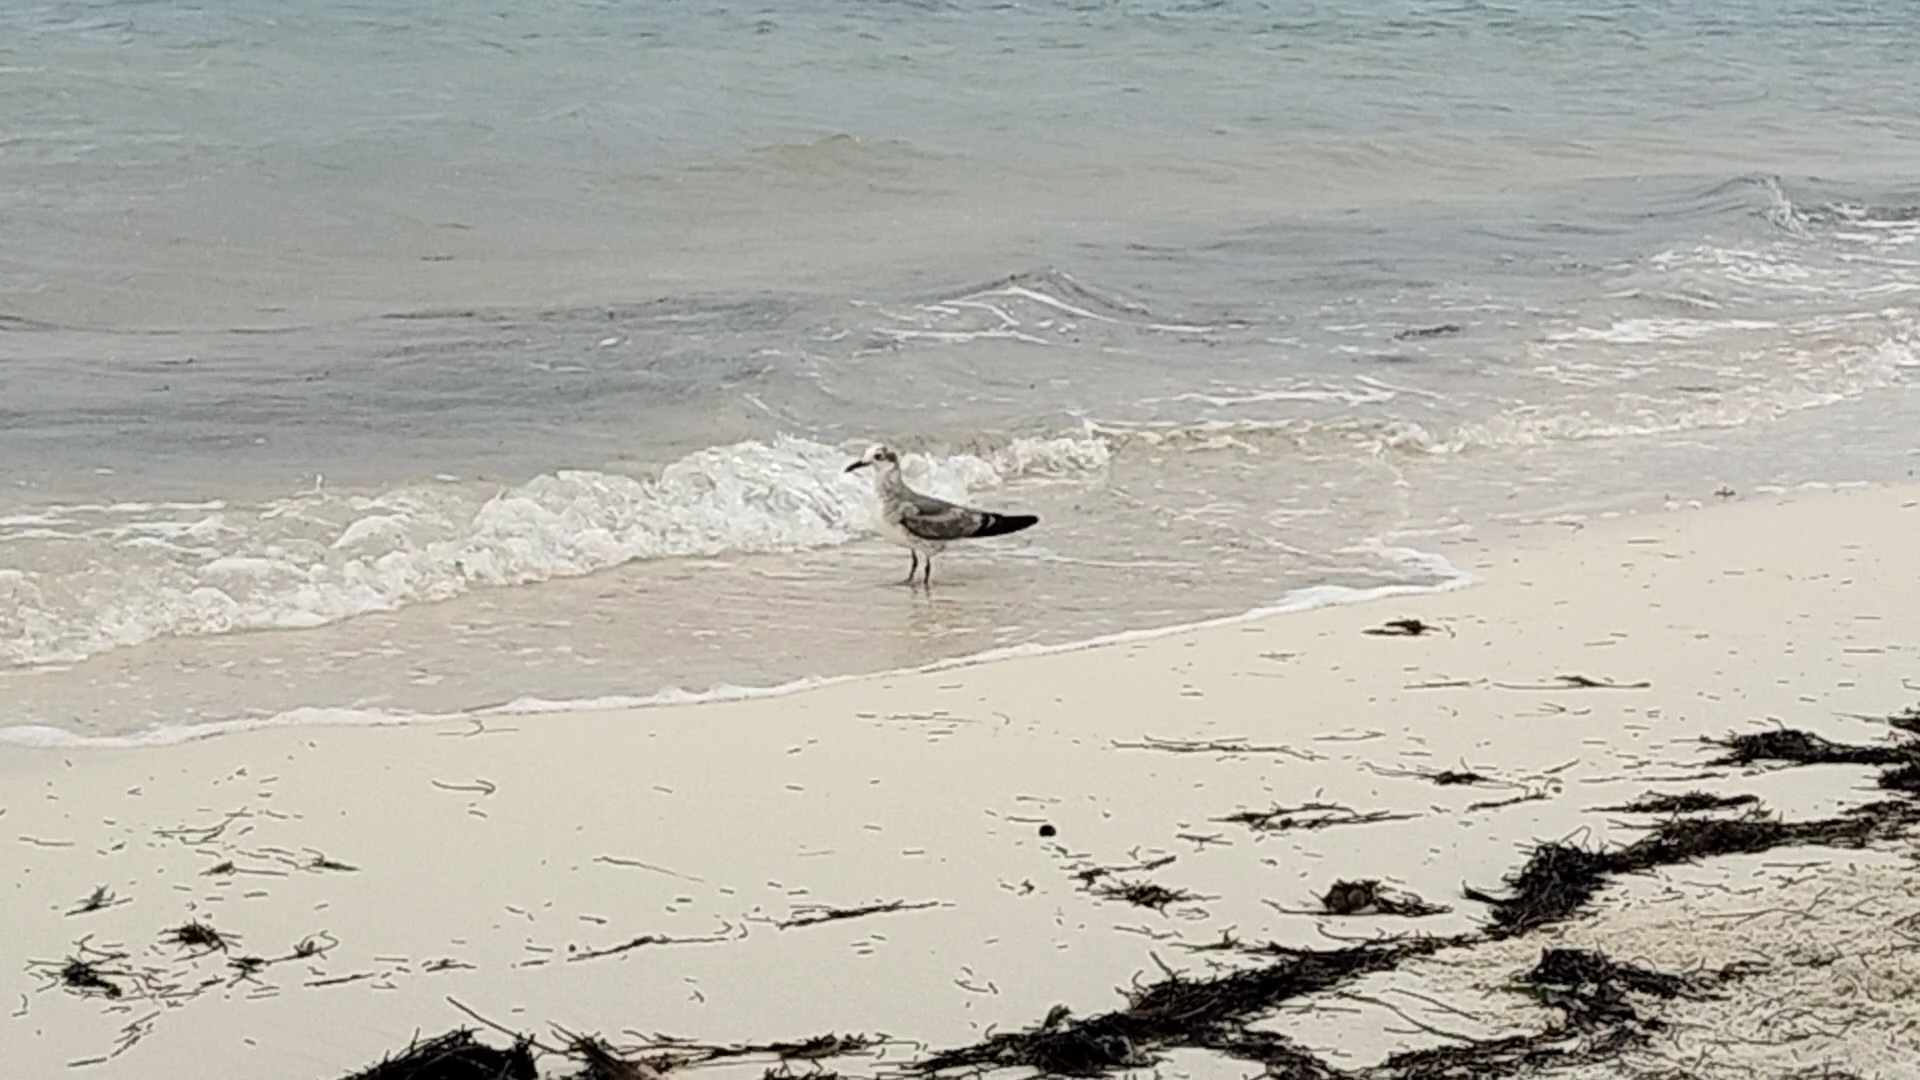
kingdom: Animalia
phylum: Chordata
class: Aves
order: Charadriiformes
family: Laridae
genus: Leucophaeus
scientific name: Leucophaeus atricilla
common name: Laughing gull
